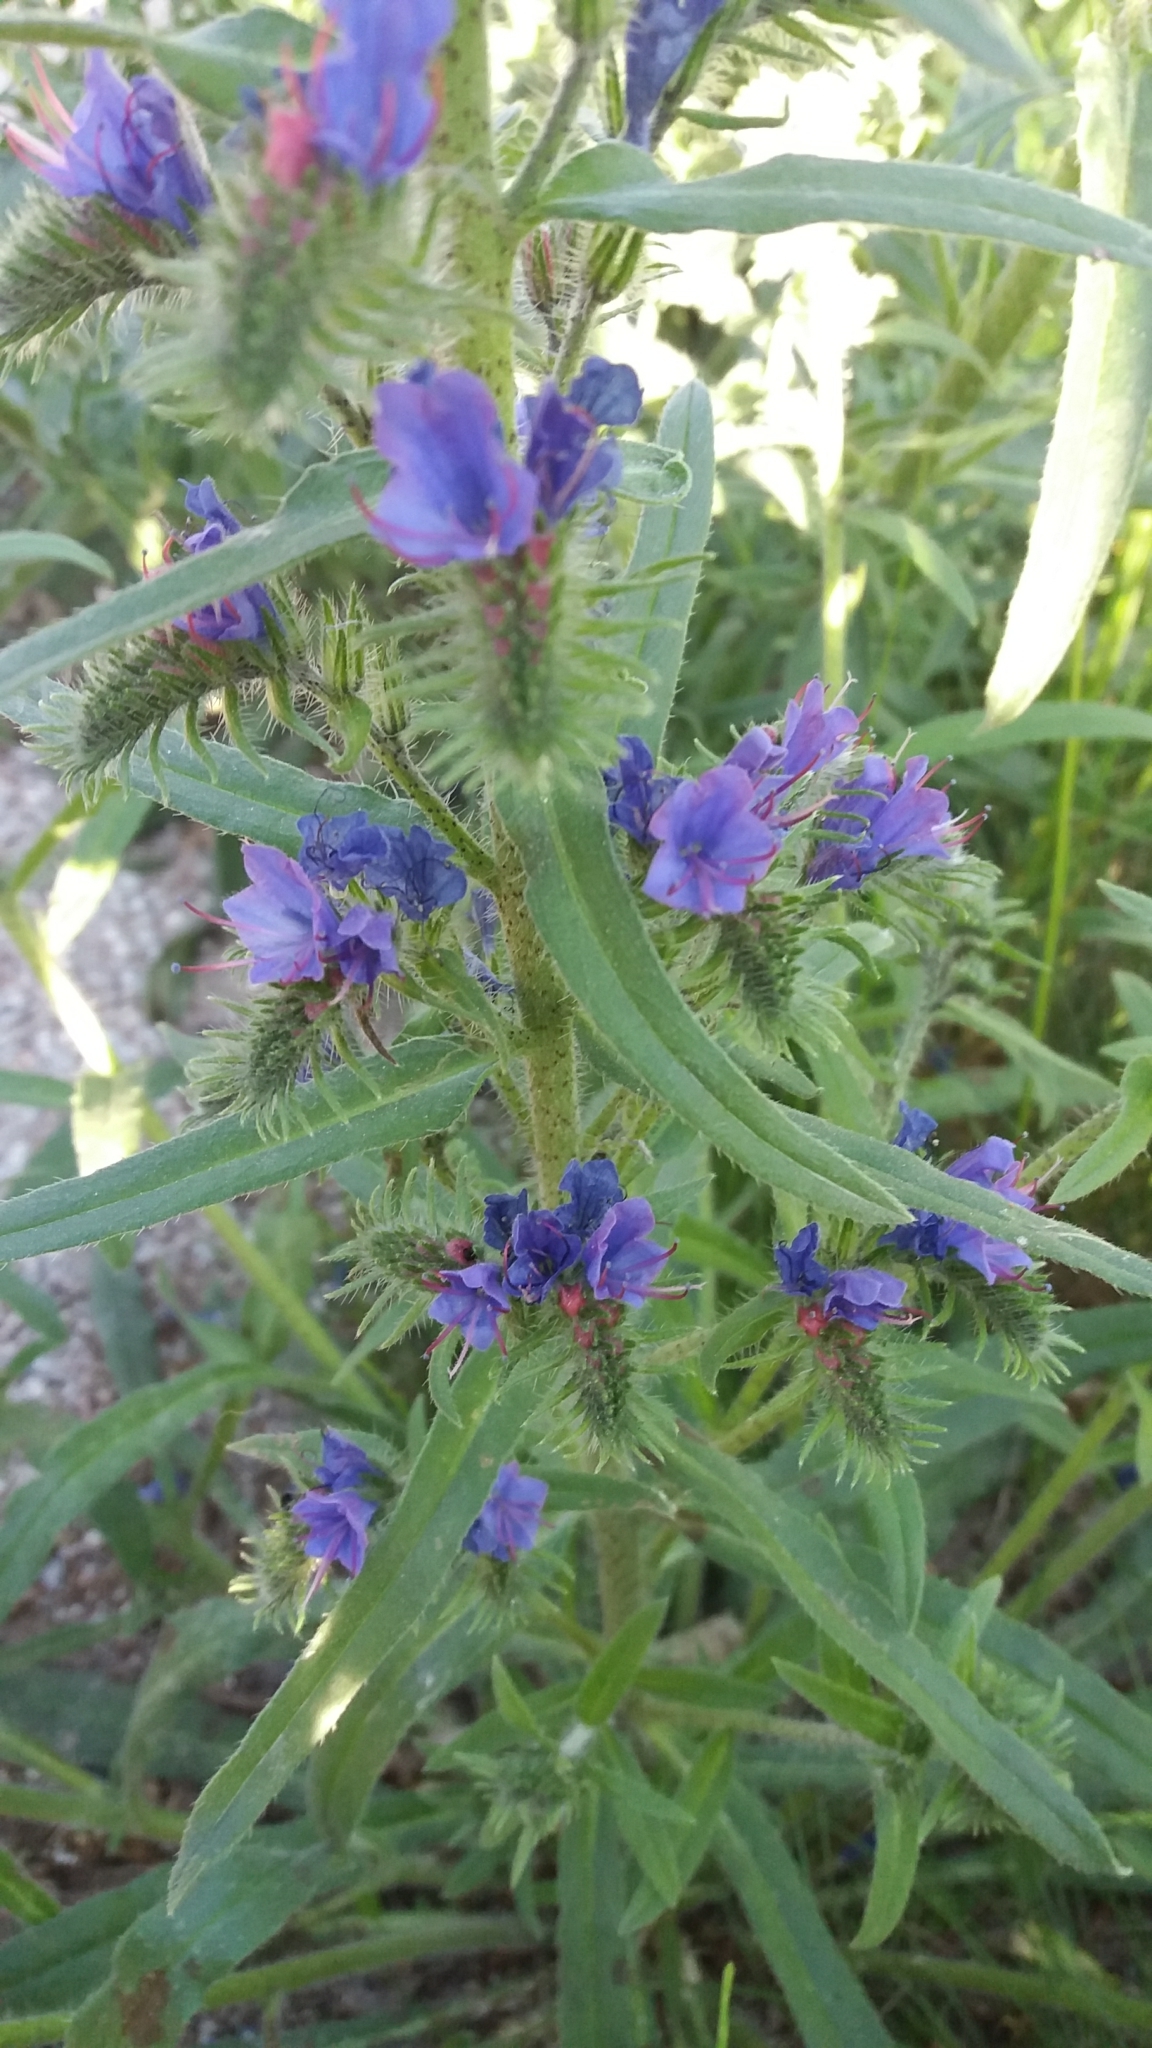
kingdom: Plantae
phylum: Tracheophyta
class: Magnoliopsida
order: Boraginales
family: Boraginaceae
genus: Echium
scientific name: Echium vulgare
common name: Common viper's bugloss
